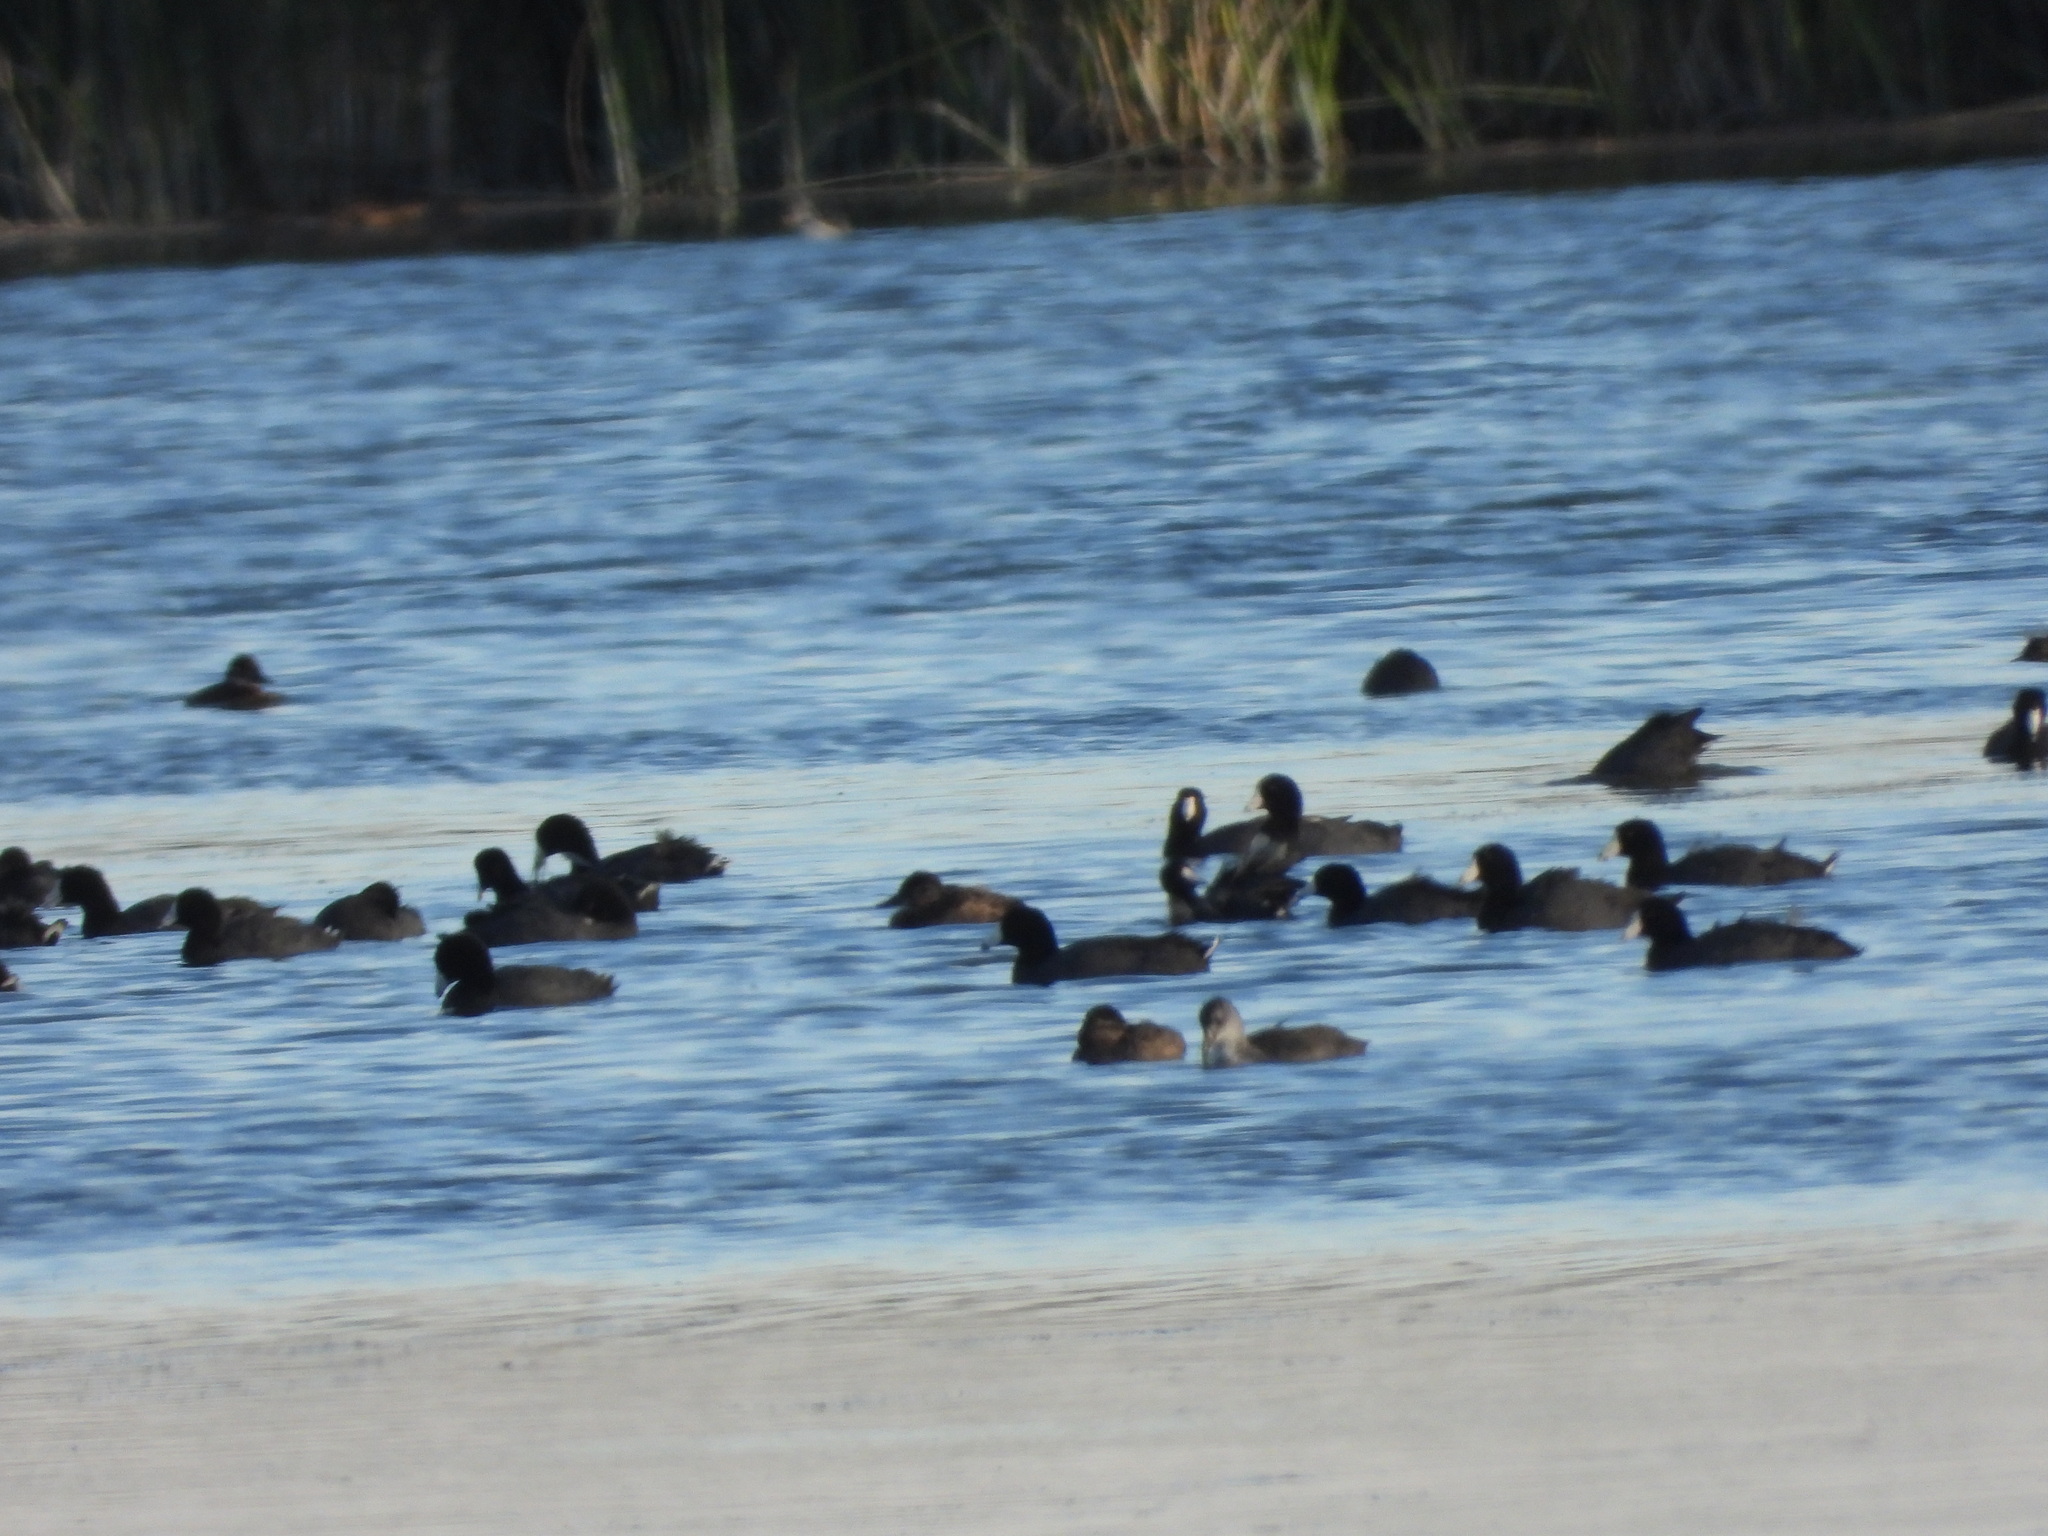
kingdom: Animalia
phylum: Chordata
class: Aves
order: Gruiformes
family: Rallidae
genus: Fulica
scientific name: Fulica americana
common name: American coot
